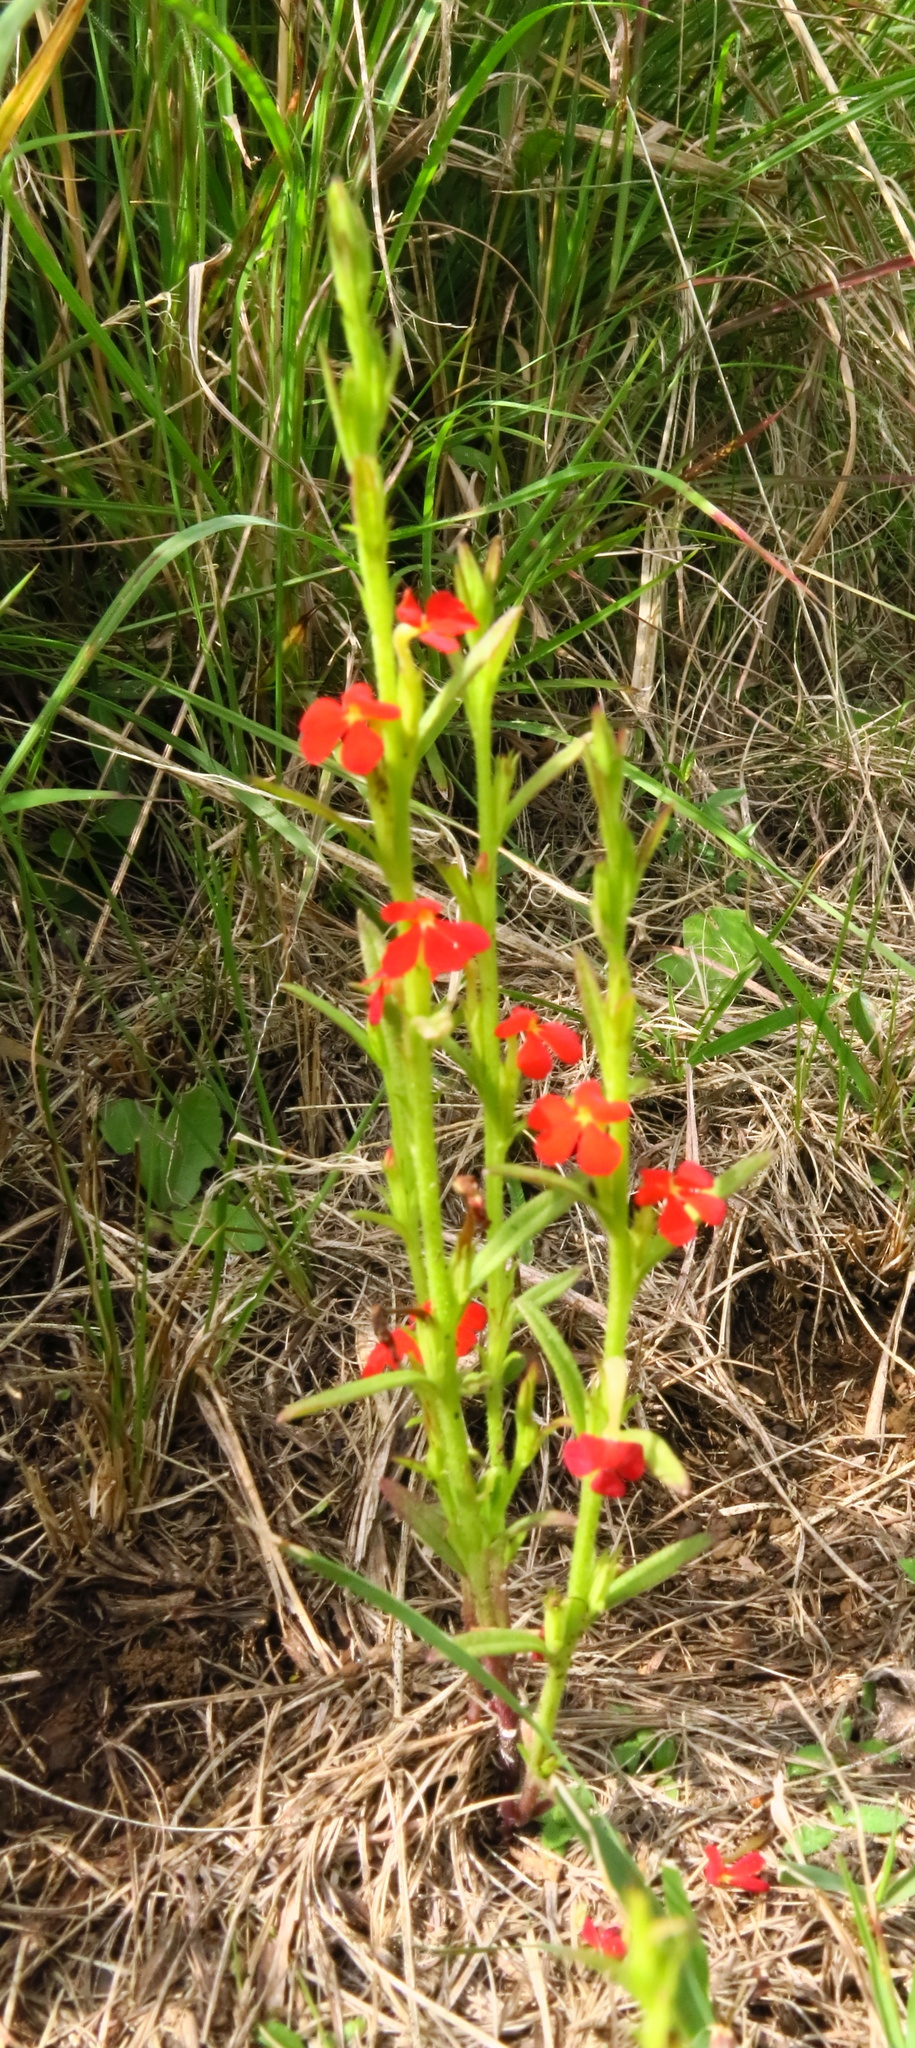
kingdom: Plantae
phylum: Tracheophyta
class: Magnoliopsida
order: Lamiales
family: Orobanchaceae
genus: Striga
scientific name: Striga asiatica
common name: Asiatic witchweed
